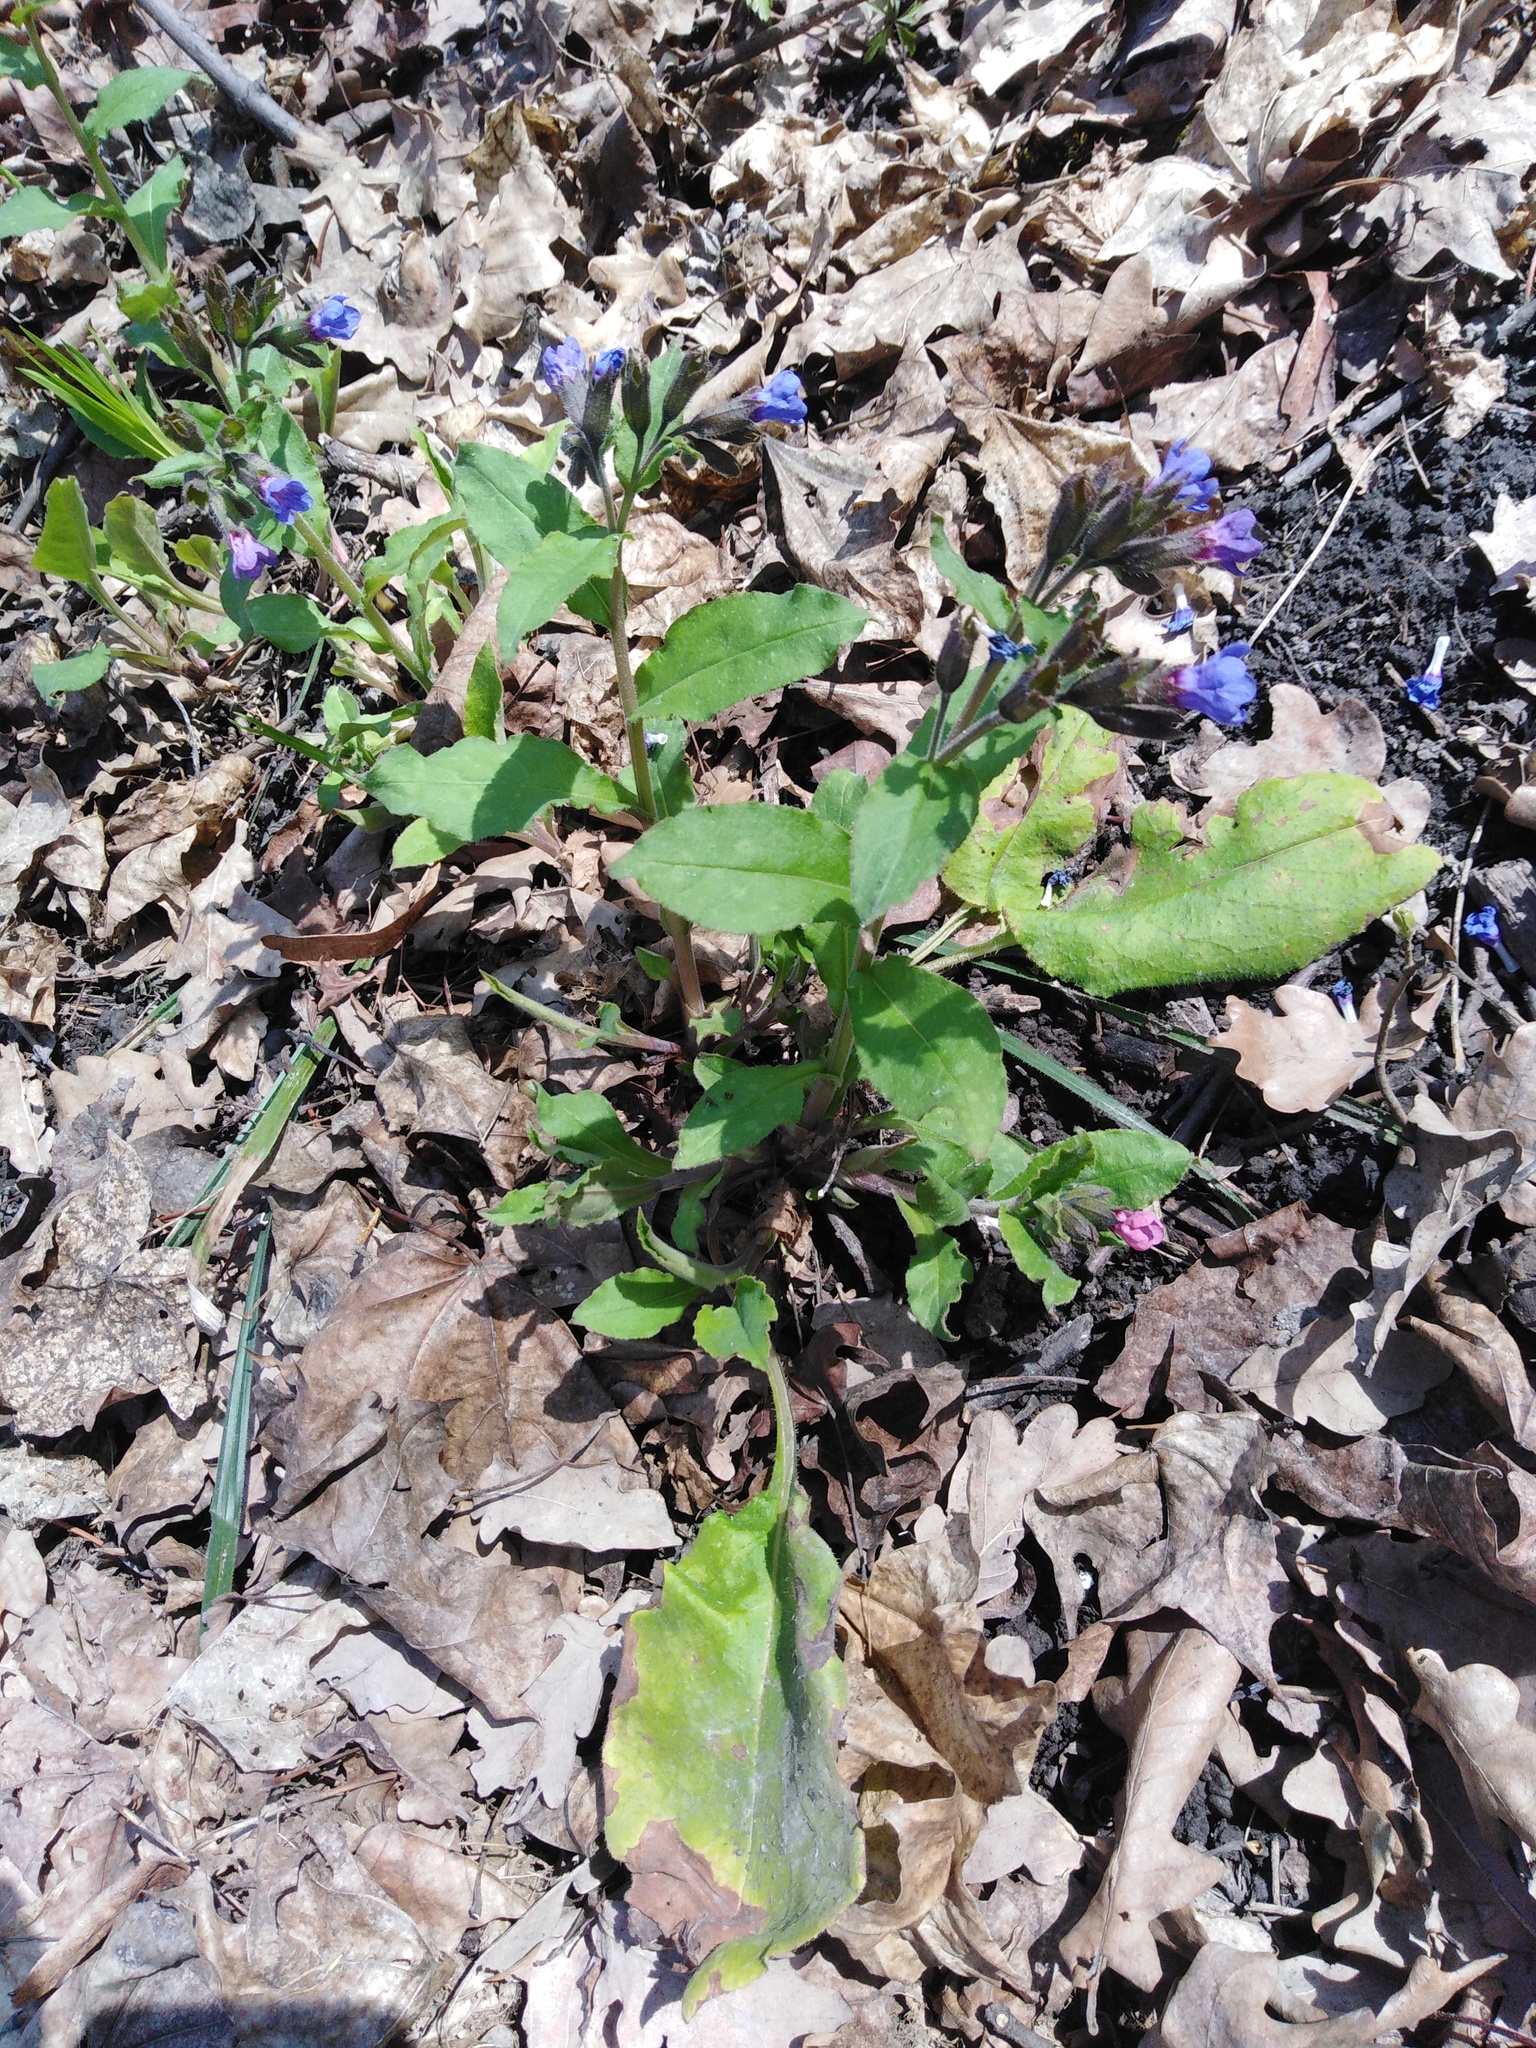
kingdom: Plantae
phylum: Tracheophyta
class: Magnoliopsida
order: Boraginales
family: Boraginaceae
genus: Pulmonaria
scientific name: Pulmonaria obscura
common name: Suffolk lungwort
